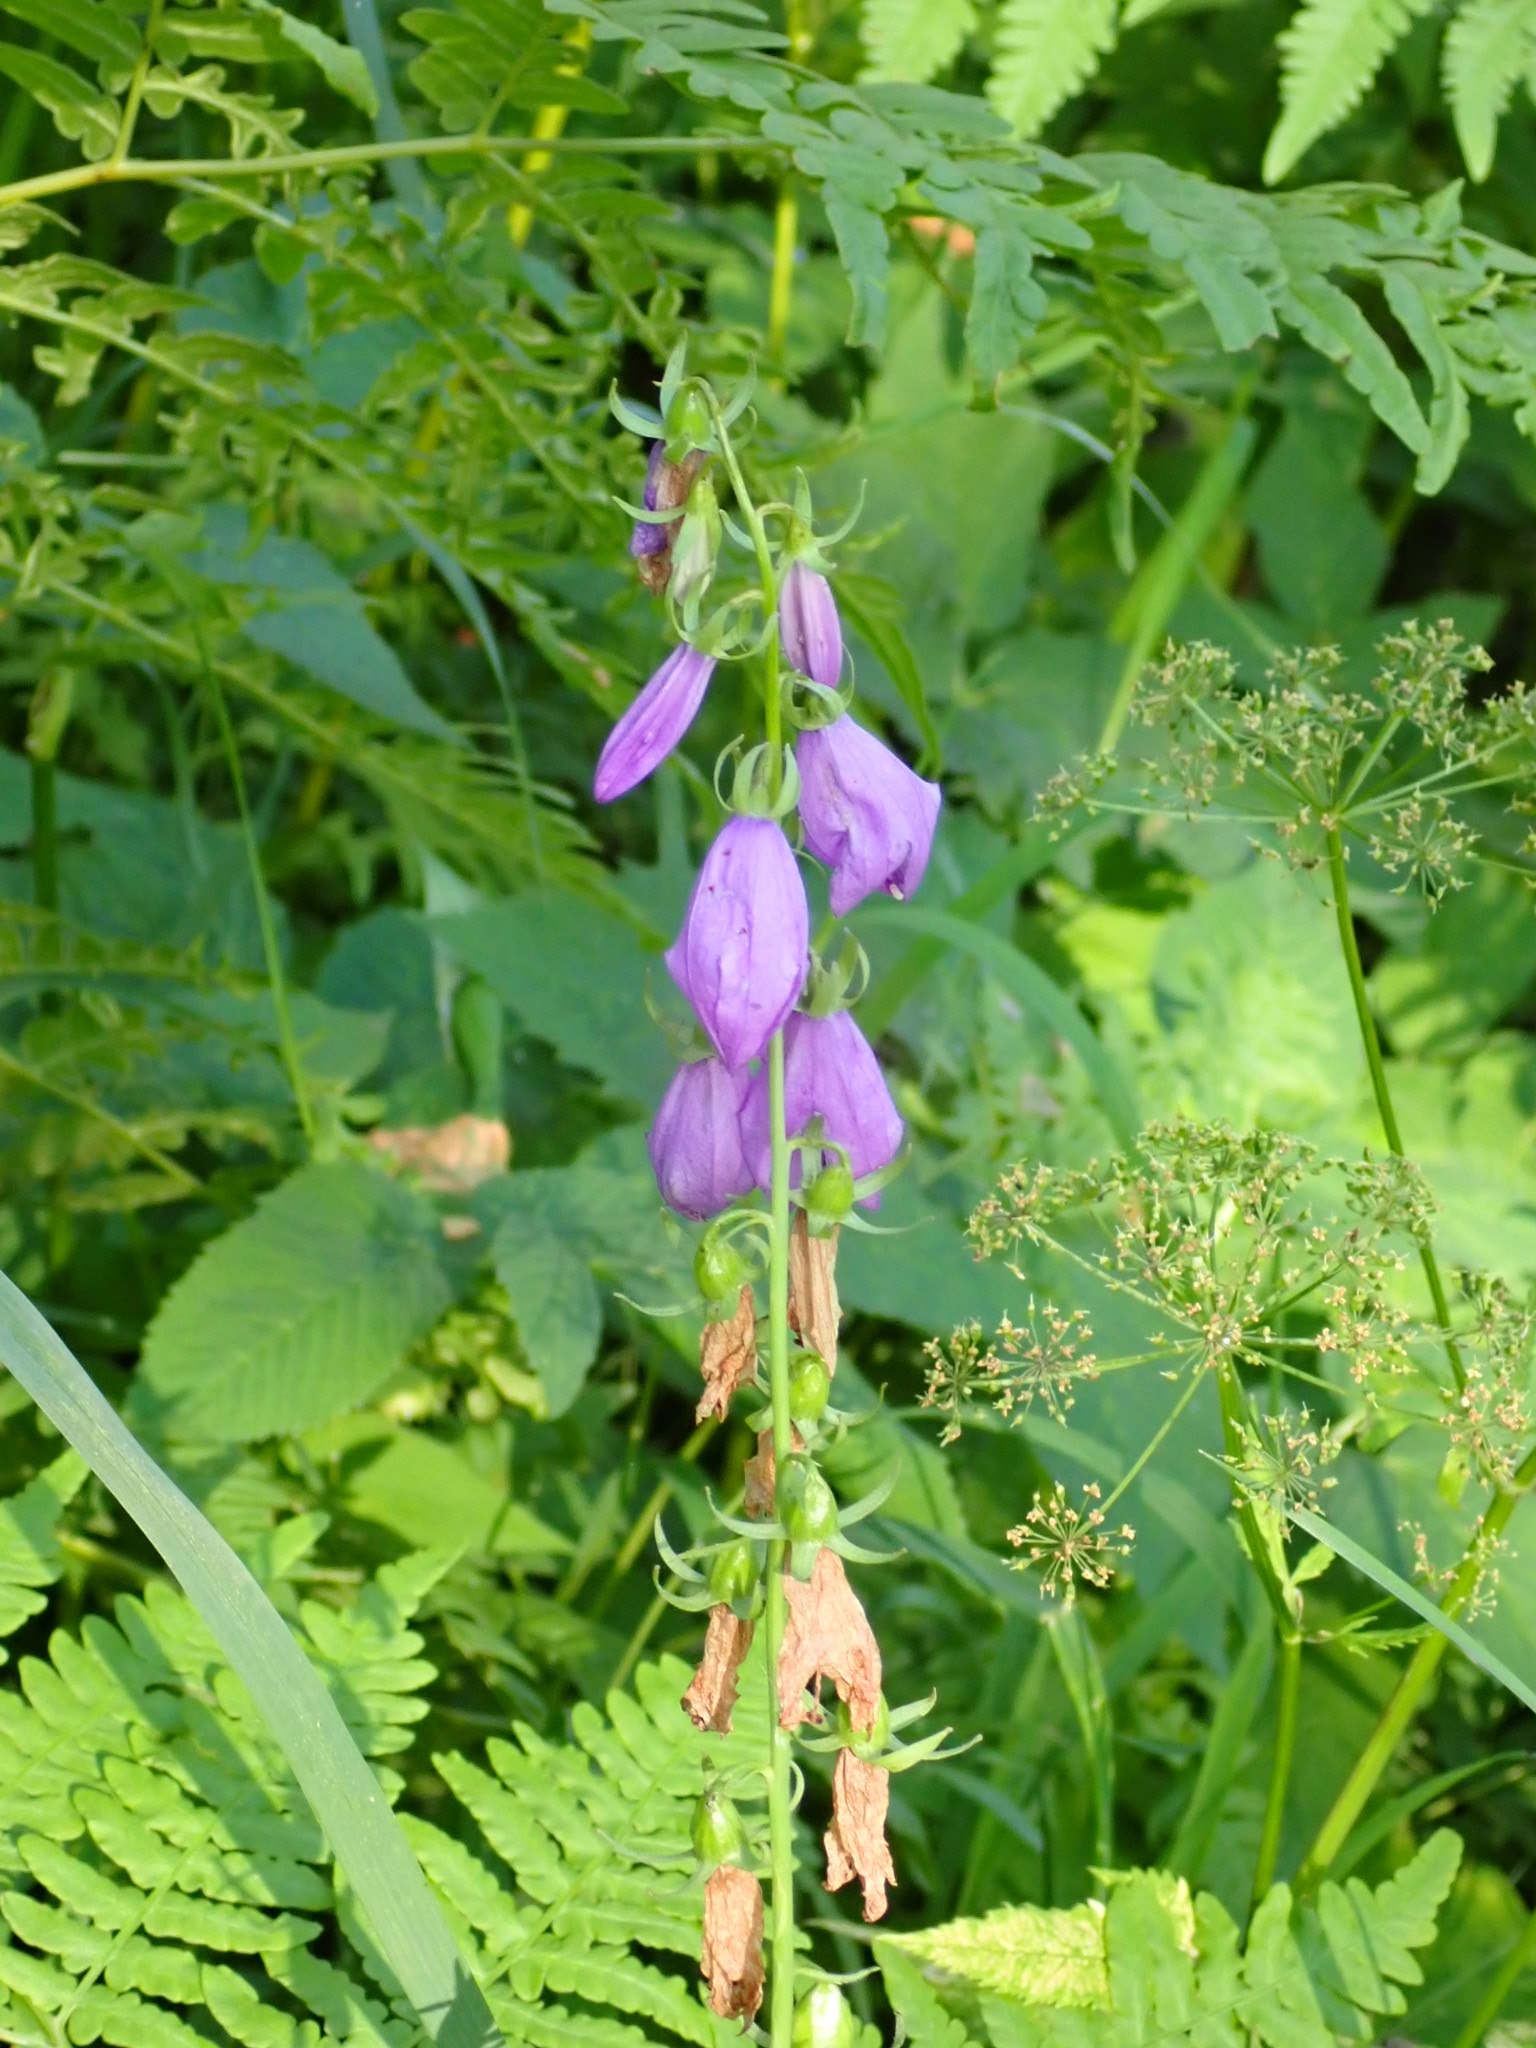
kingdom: Plantae
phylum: Tracheophyta
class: Magnoliopsida
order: Asterales
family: Campanulaceae
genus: Campanula
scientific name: Campanula rapunculoides
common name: Creeping bellflower
